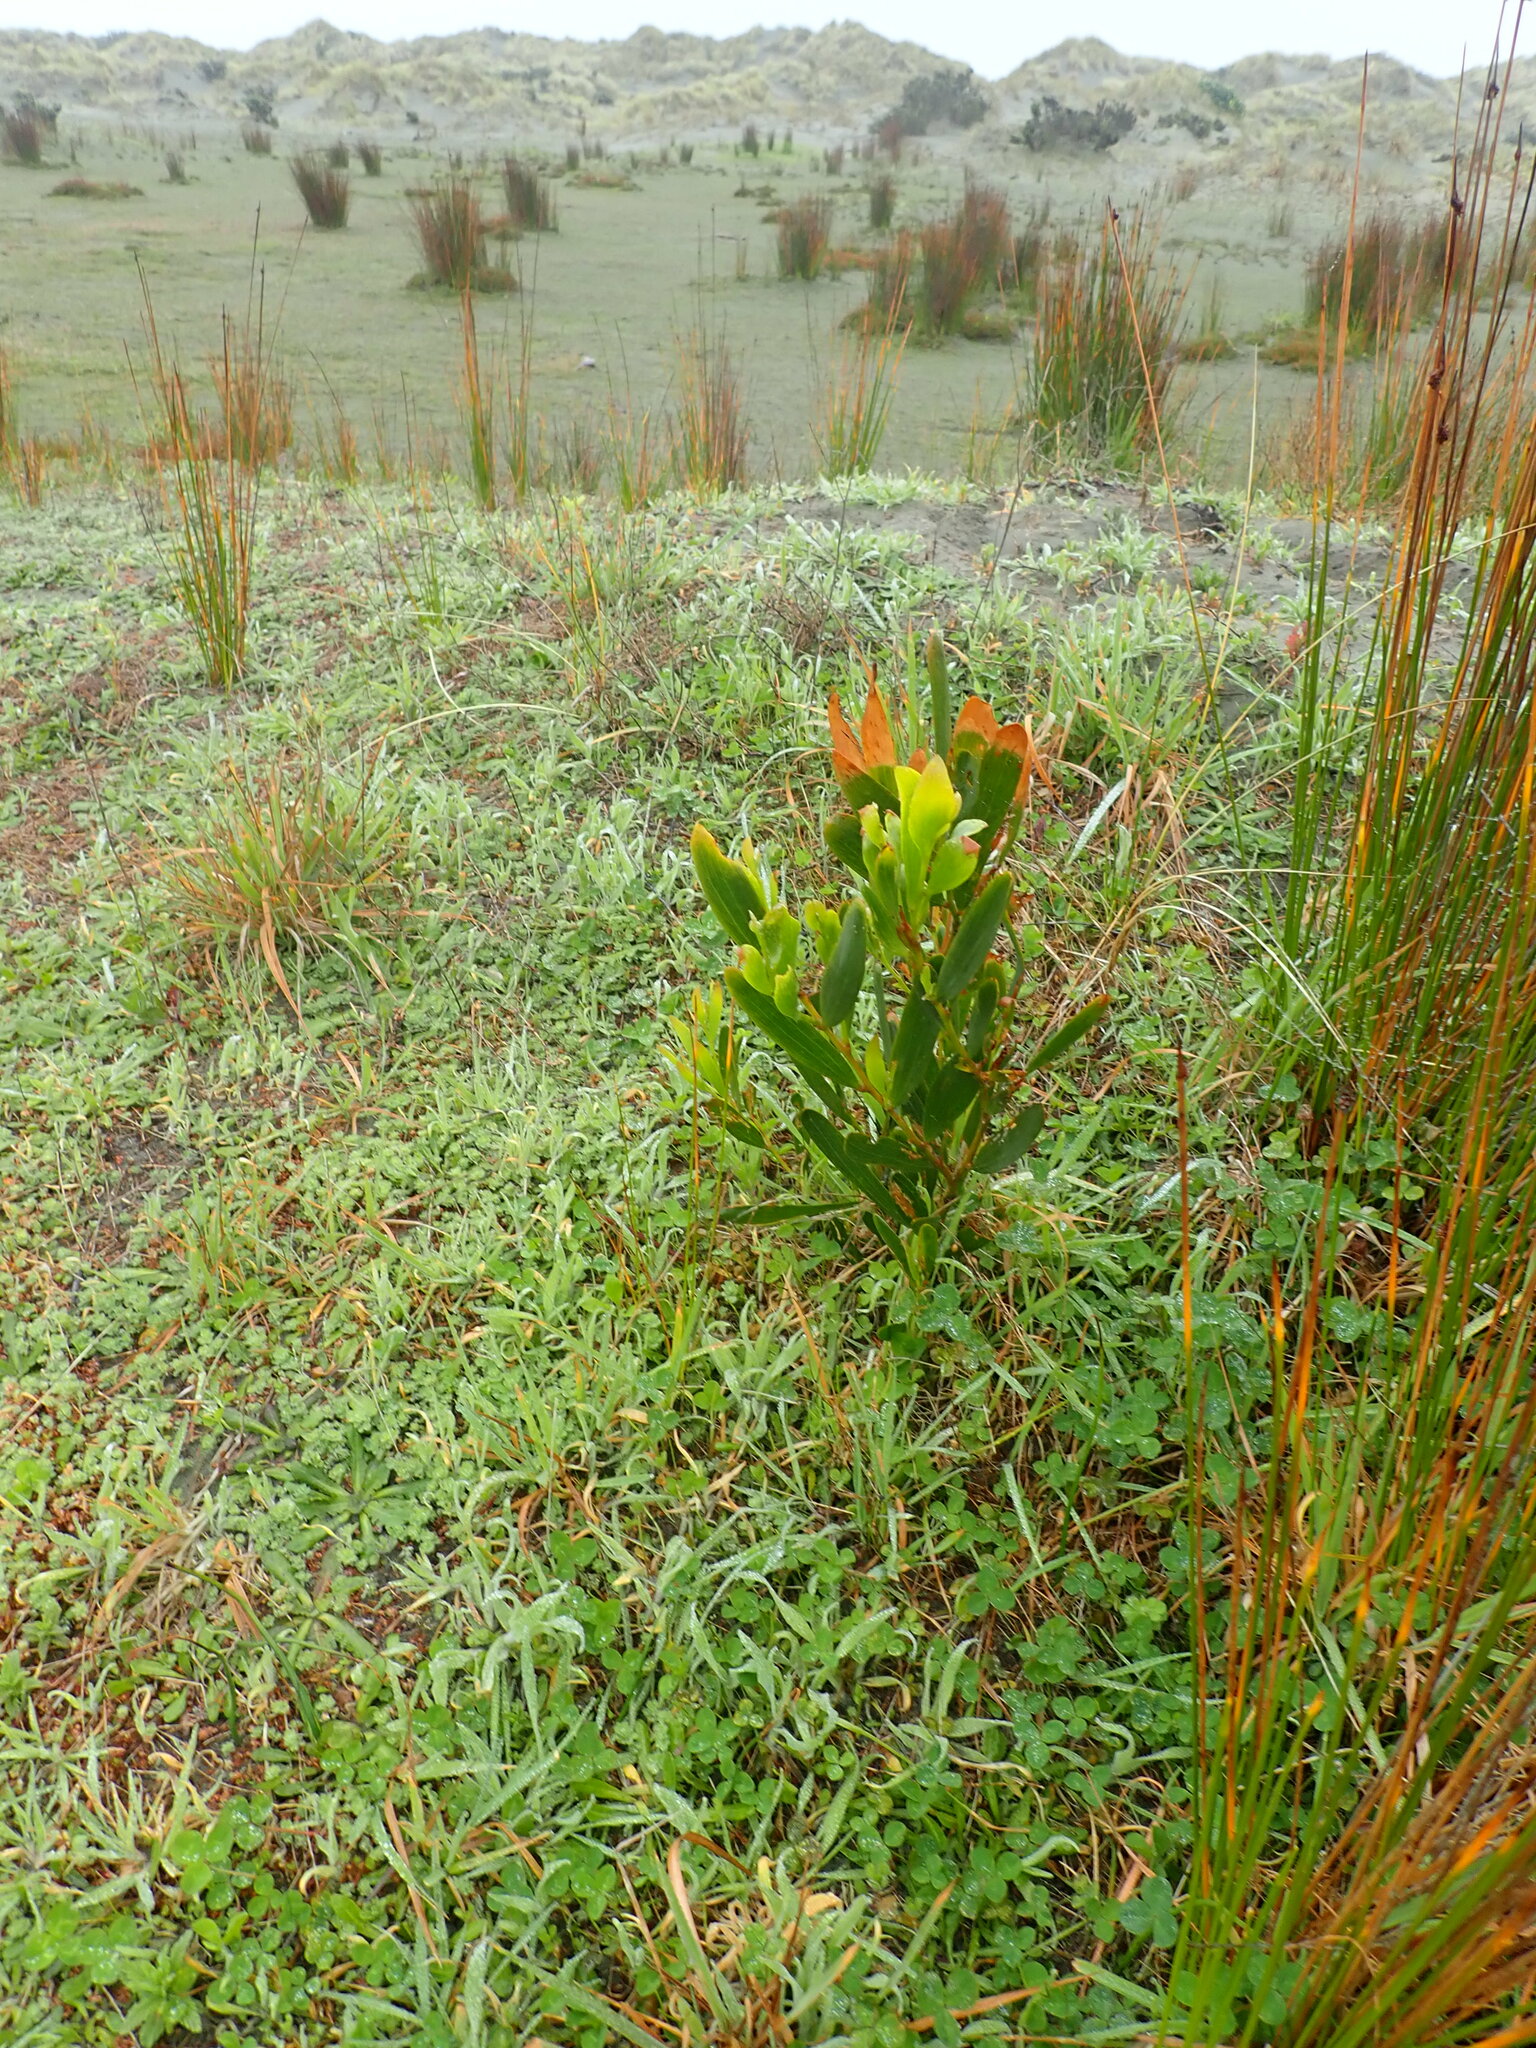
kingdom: Plantae
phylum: Tracheophyta
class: Magnoliopsida
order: Fabales
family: Fabaceae
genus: Acacia
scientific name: Acacia longifolia
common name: Sydney golden wattle
